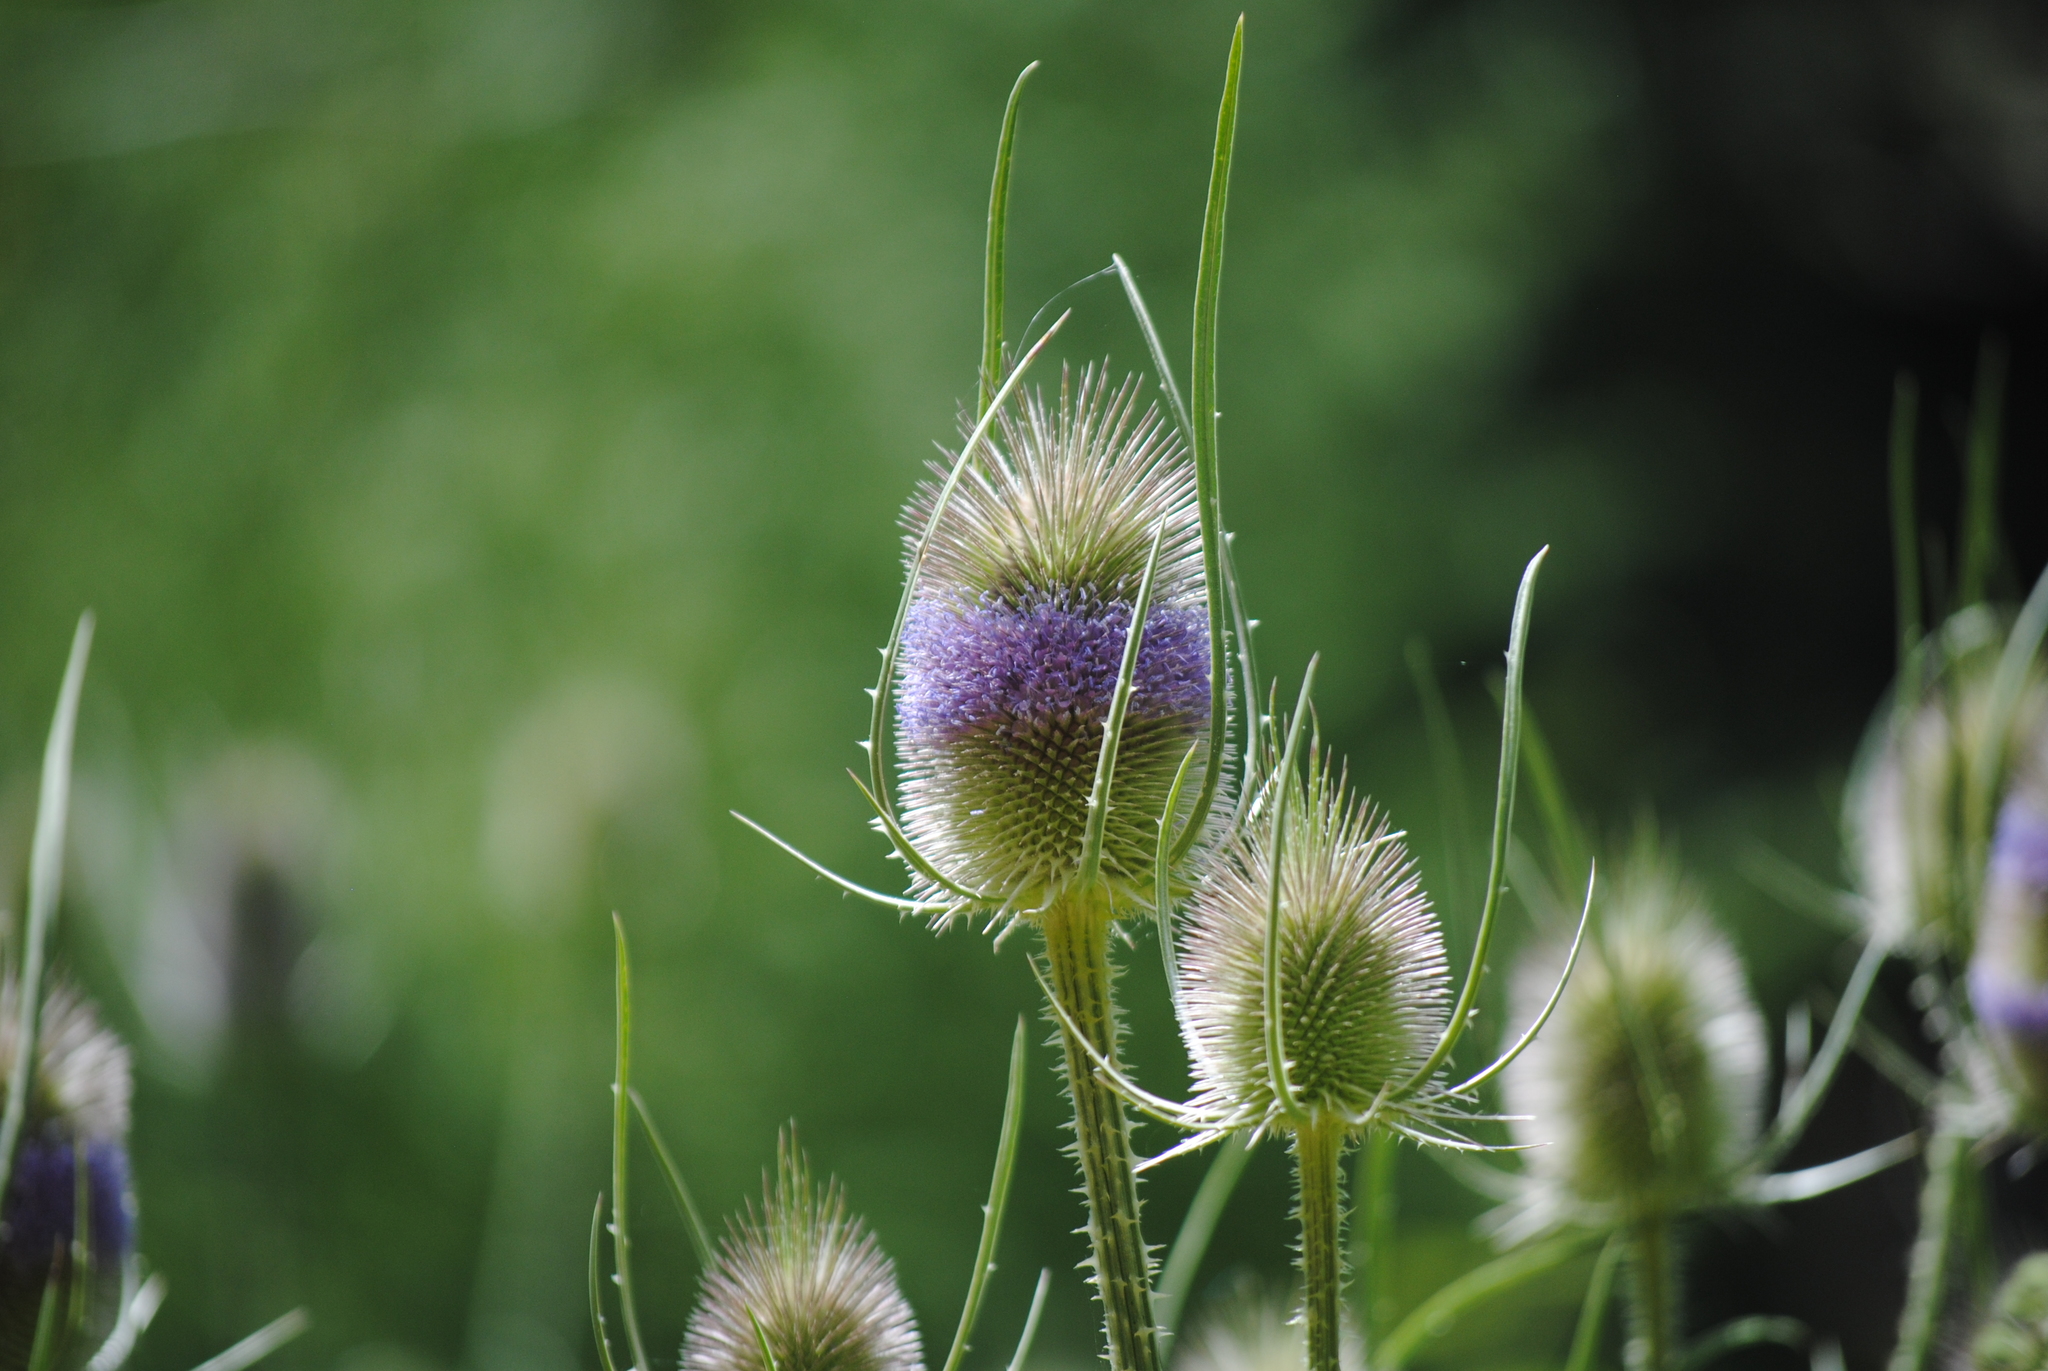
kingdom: Plantae
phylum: Tracheophyta
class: Magnoliopsida
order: Dipsacales
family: Caprifoliaceae
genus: Dipsacus
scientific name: Dipsacus fullonum
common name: Teasel
